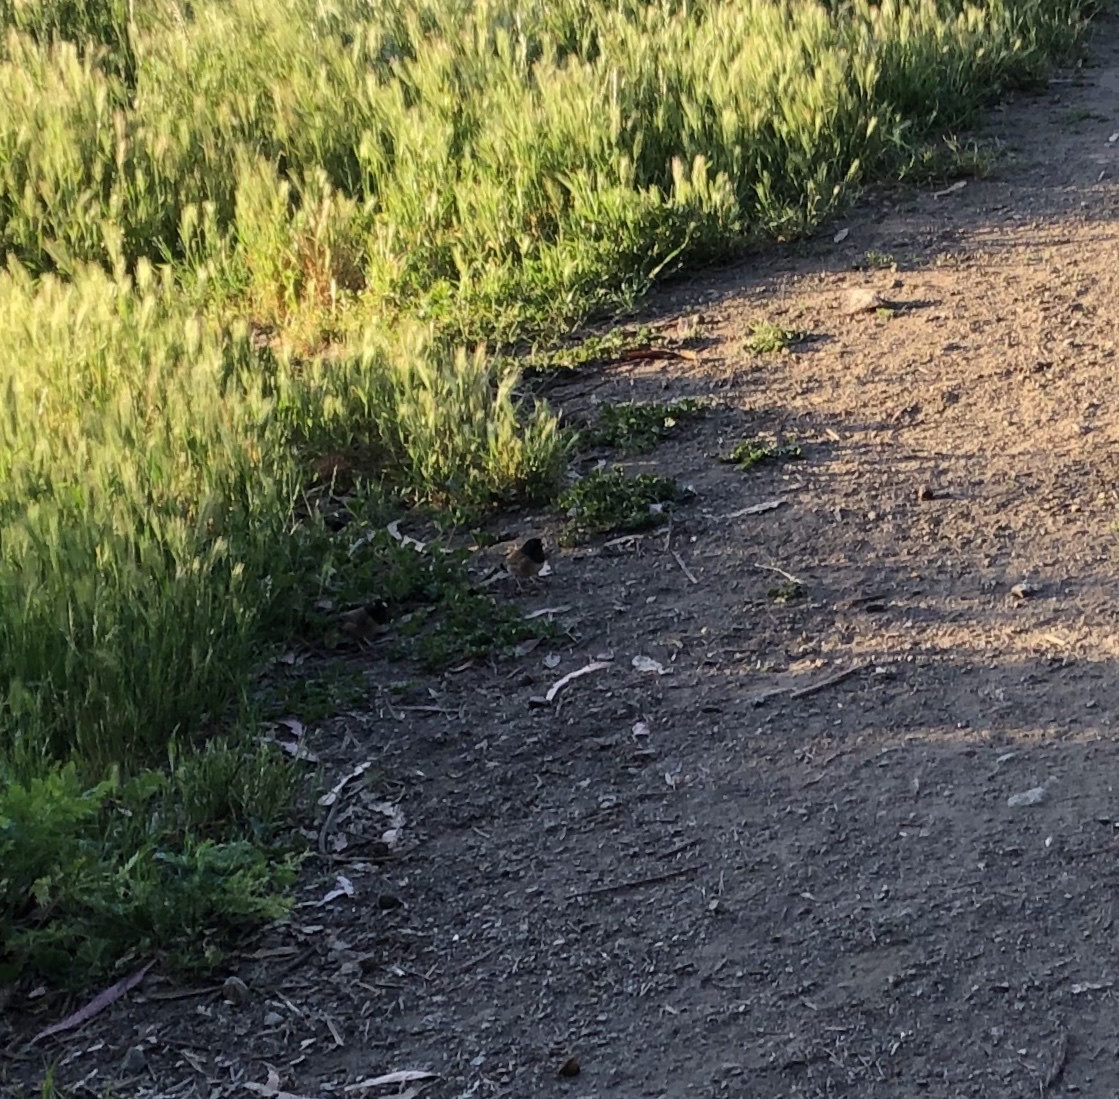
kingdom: Animalia
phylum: Chordata
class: Aves
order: Passeriformes
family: Passerellidae
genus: Junco
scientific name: Junco hyemalis
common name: Dark-eyed junco
